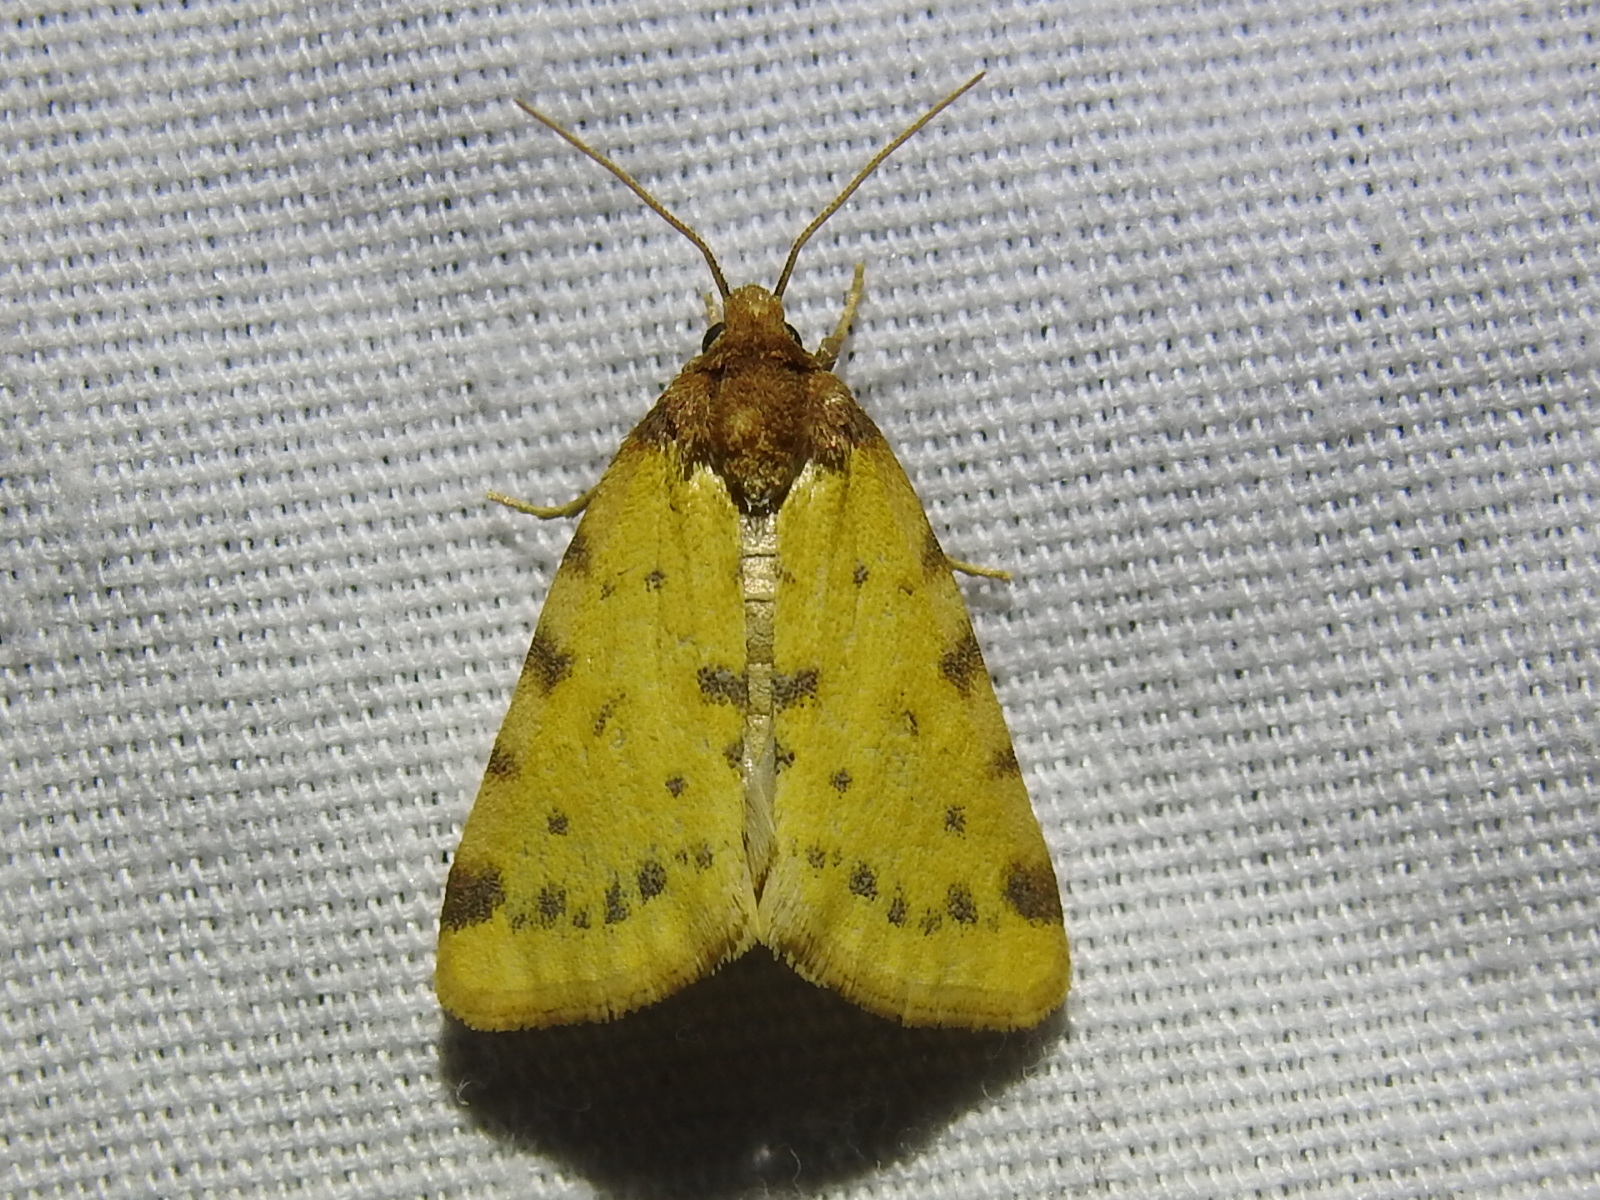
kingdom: Animalia
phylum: Arthropoda
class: Insecta
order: Lepidoptera
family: Noctuidae
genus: Azenia
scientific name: Azenia obtusa
